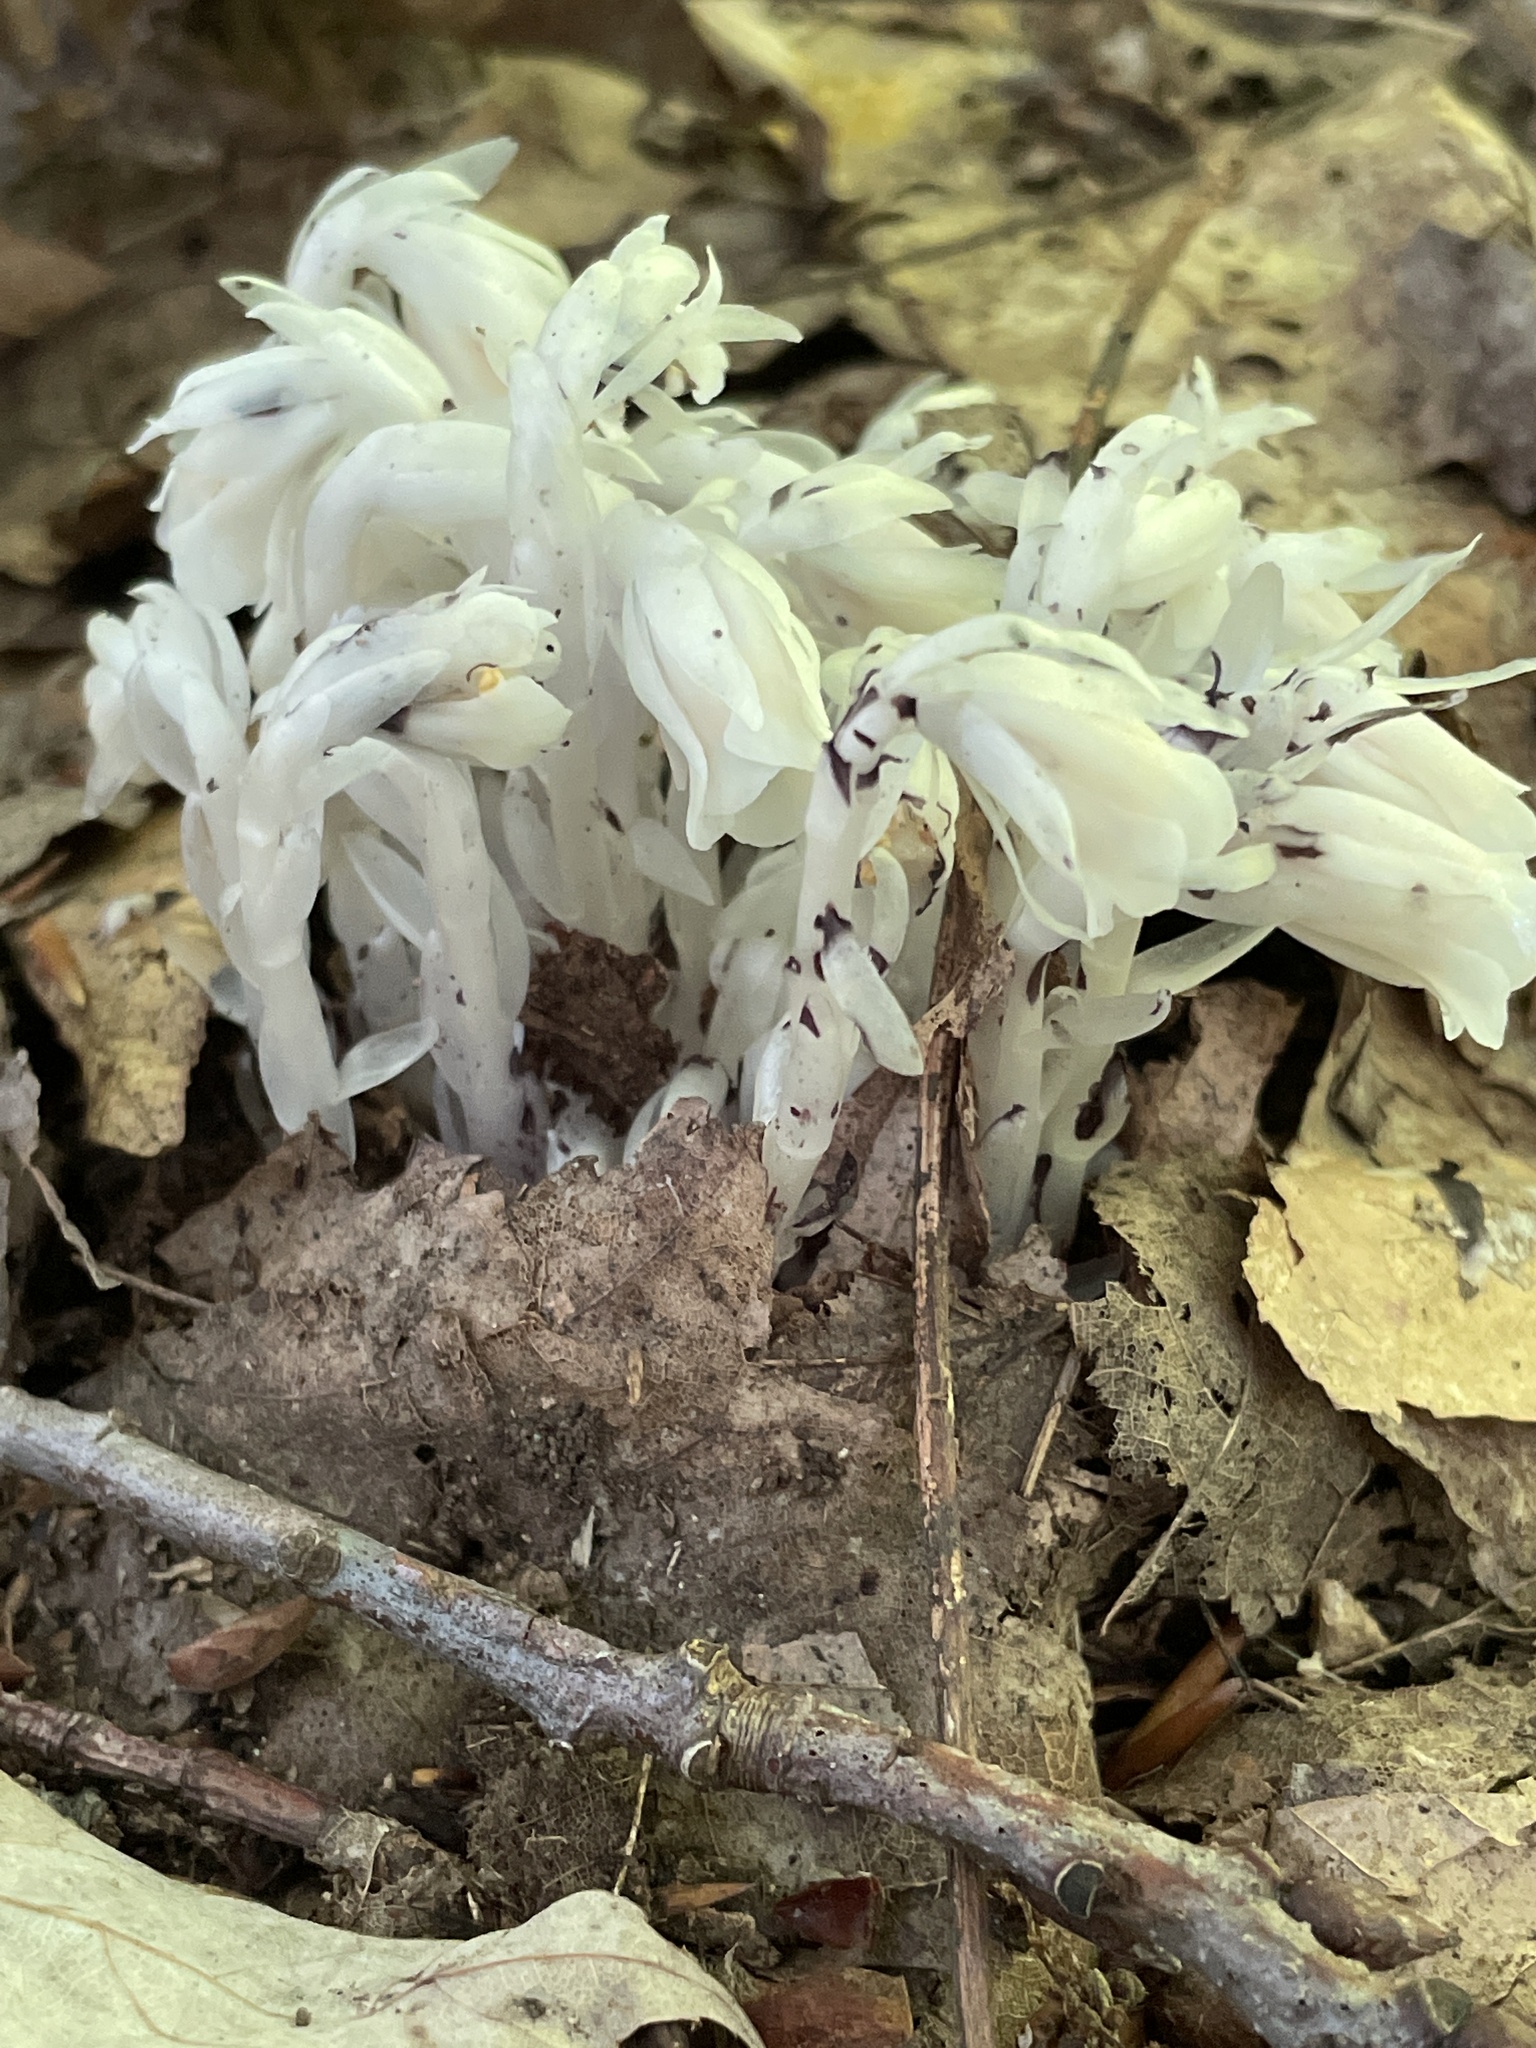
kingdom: Plantae
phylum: Tracheophyta
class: Magnoliopsida
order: Ericales
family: Ericaceae
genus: Monotropa
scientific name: Monotropa uniflora
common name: Convulsion root
